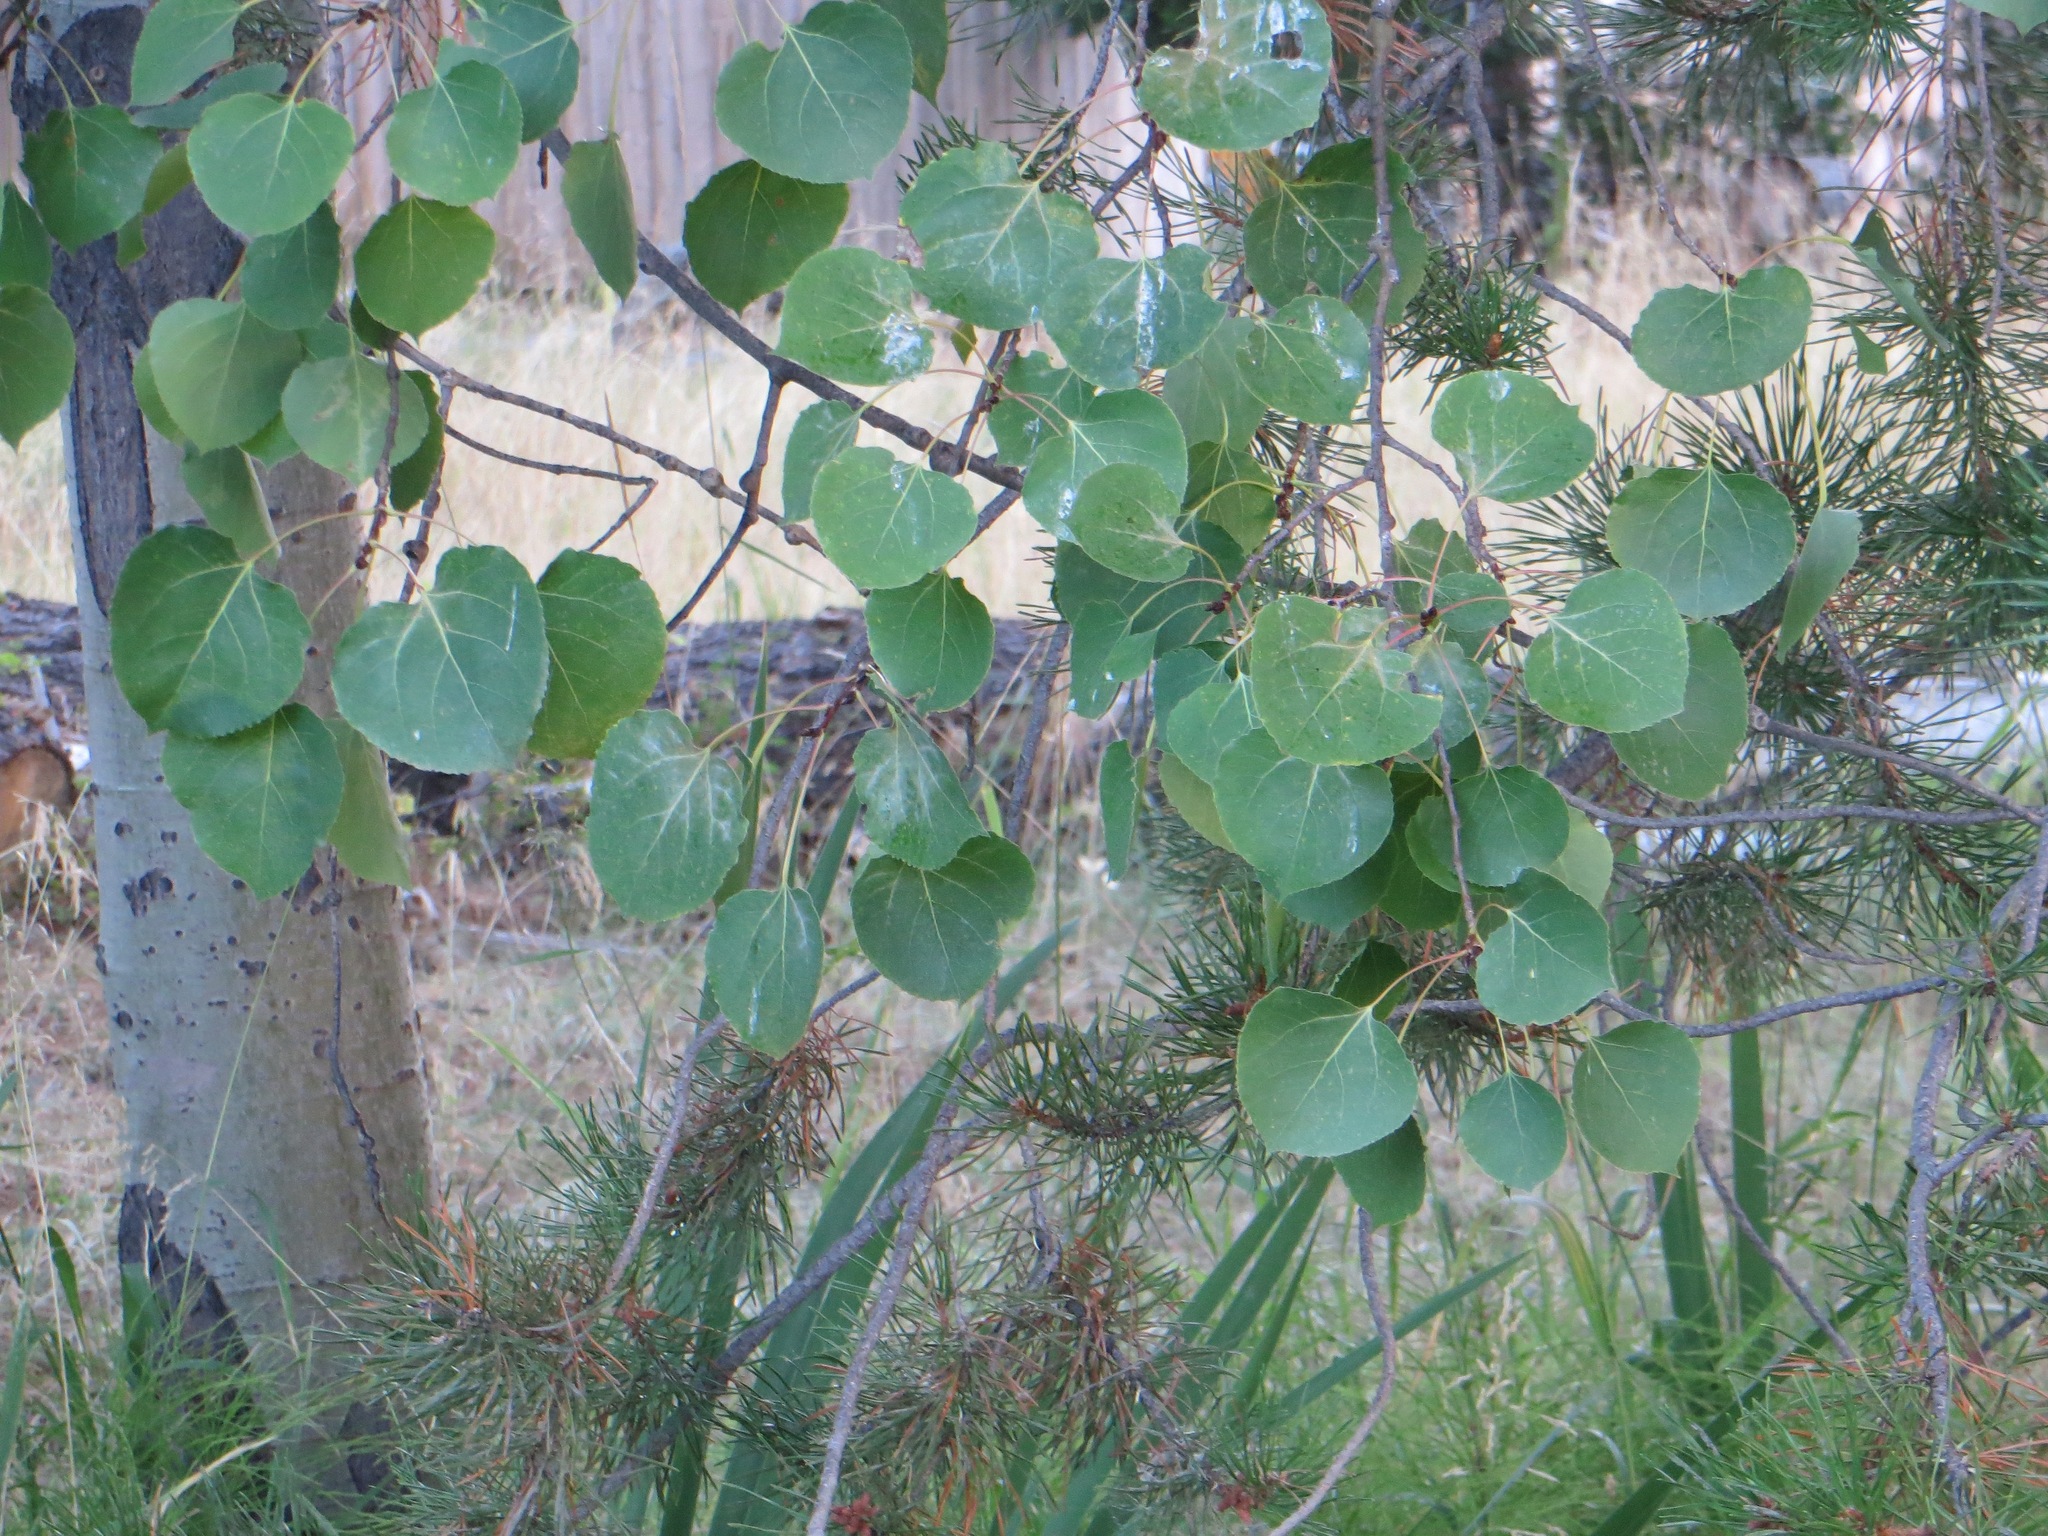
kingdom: Plantae
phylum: Tracheophyta
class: Magnoliopsida
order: Malpighiales
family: Salicaceae
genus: Populus
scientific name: Populus tremuloides
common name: Quaking aspen
